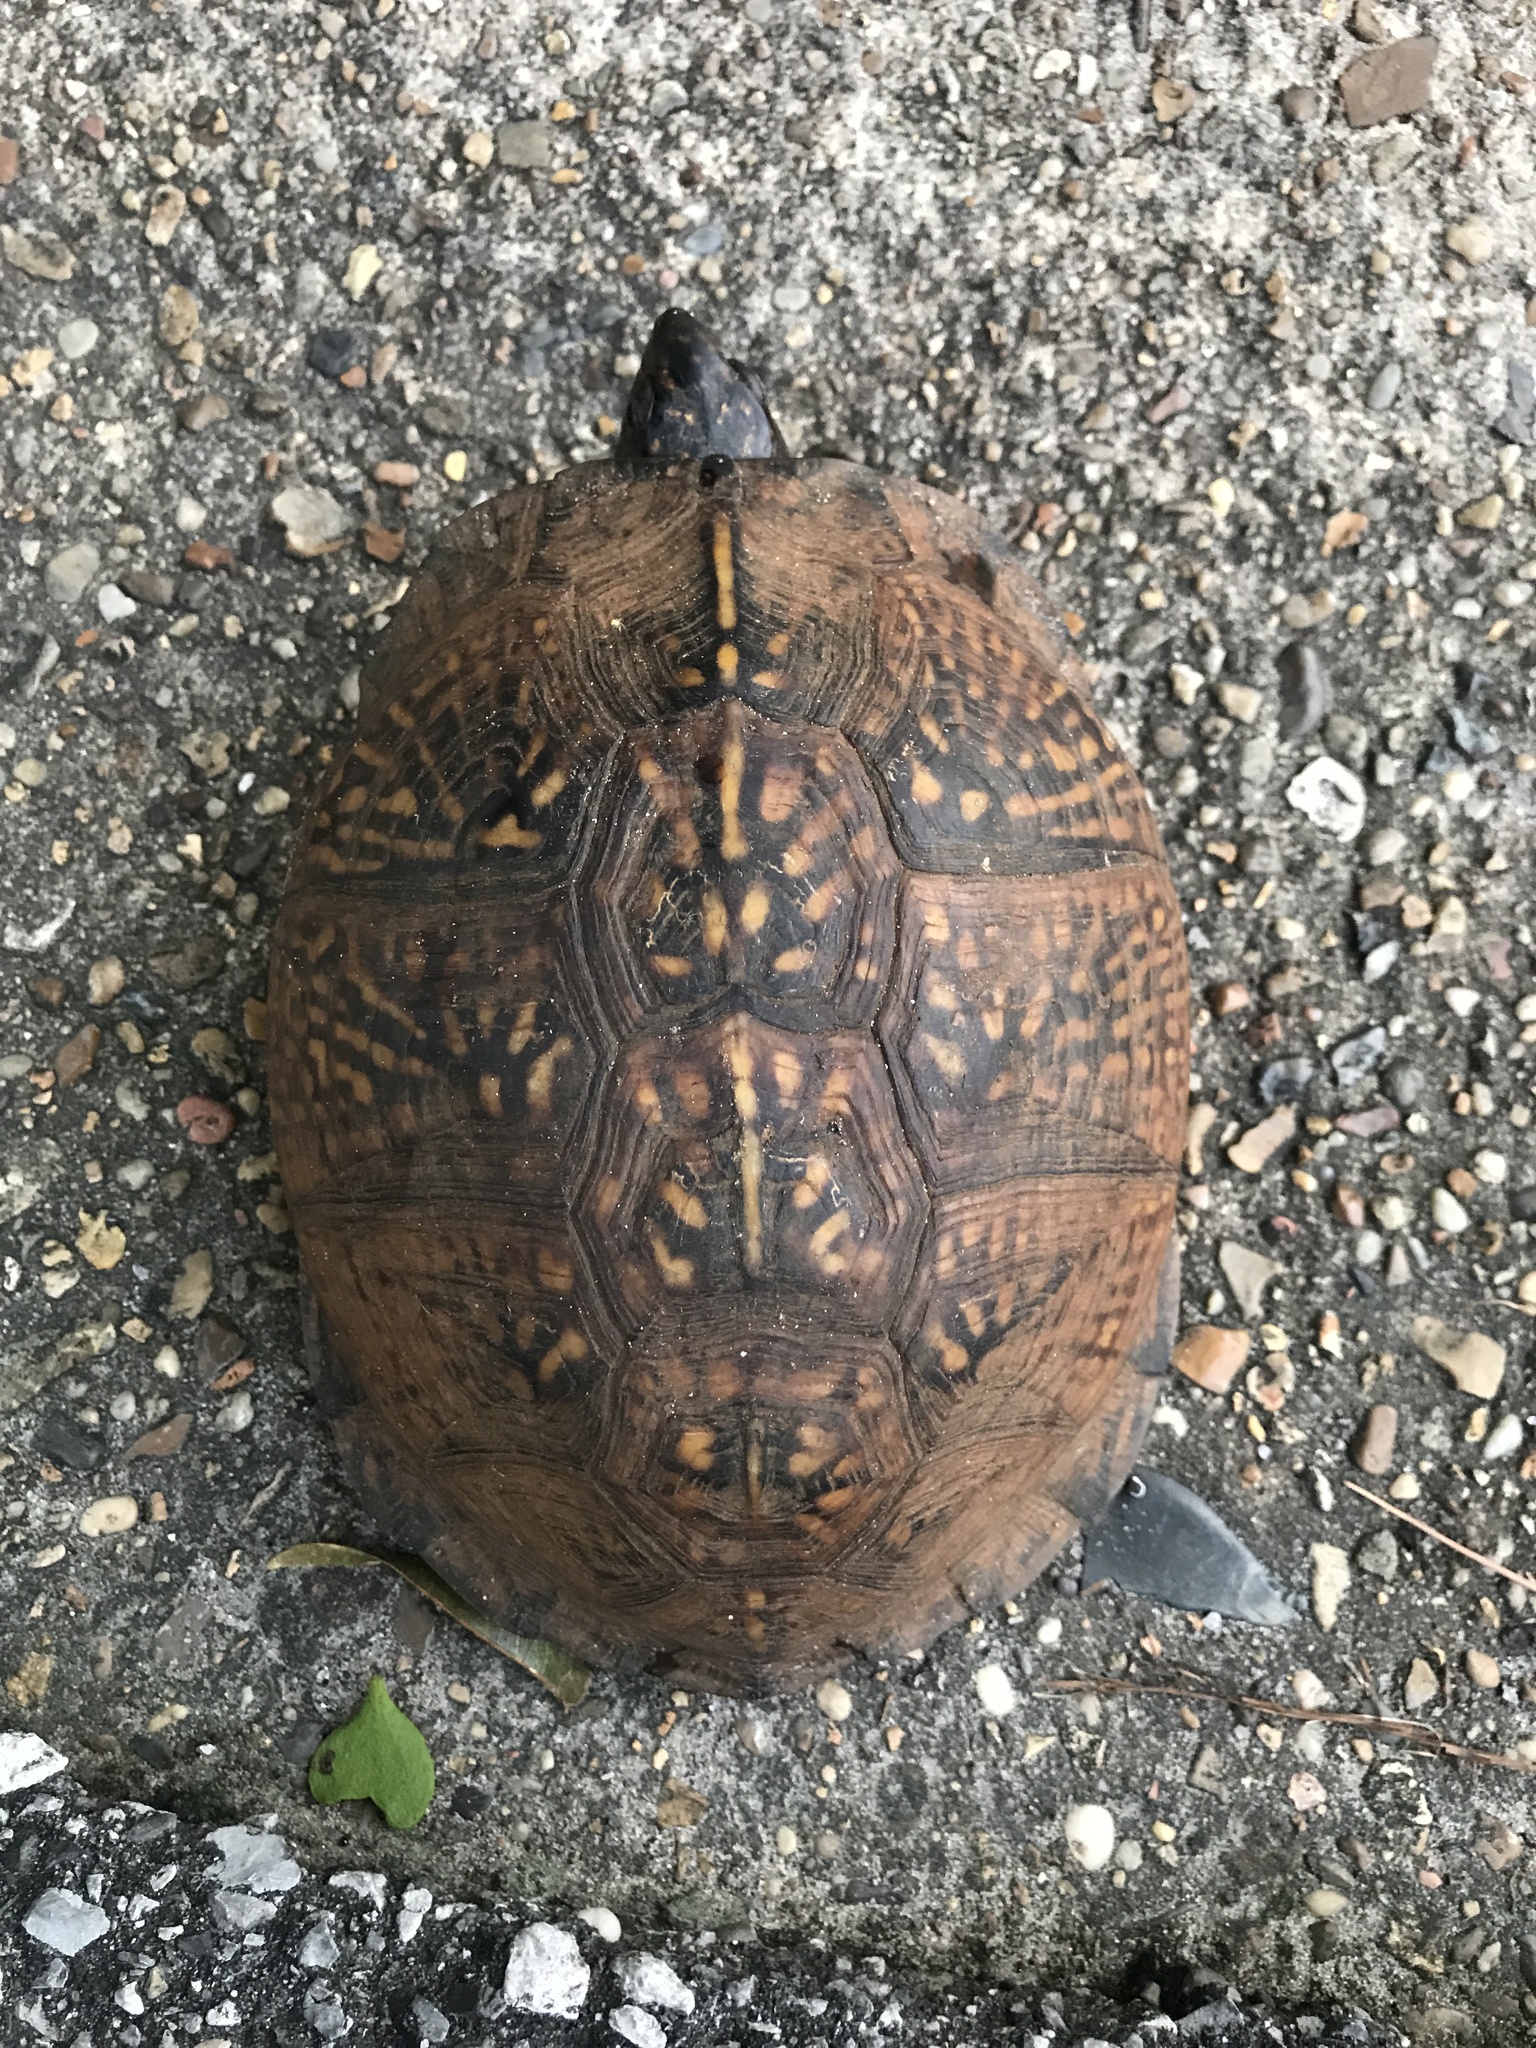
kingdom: Animalia
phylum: Chordata
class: Testudines
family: Emydidae
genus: Terrapene
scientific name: Terrapene carolina
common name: Common box turtle
